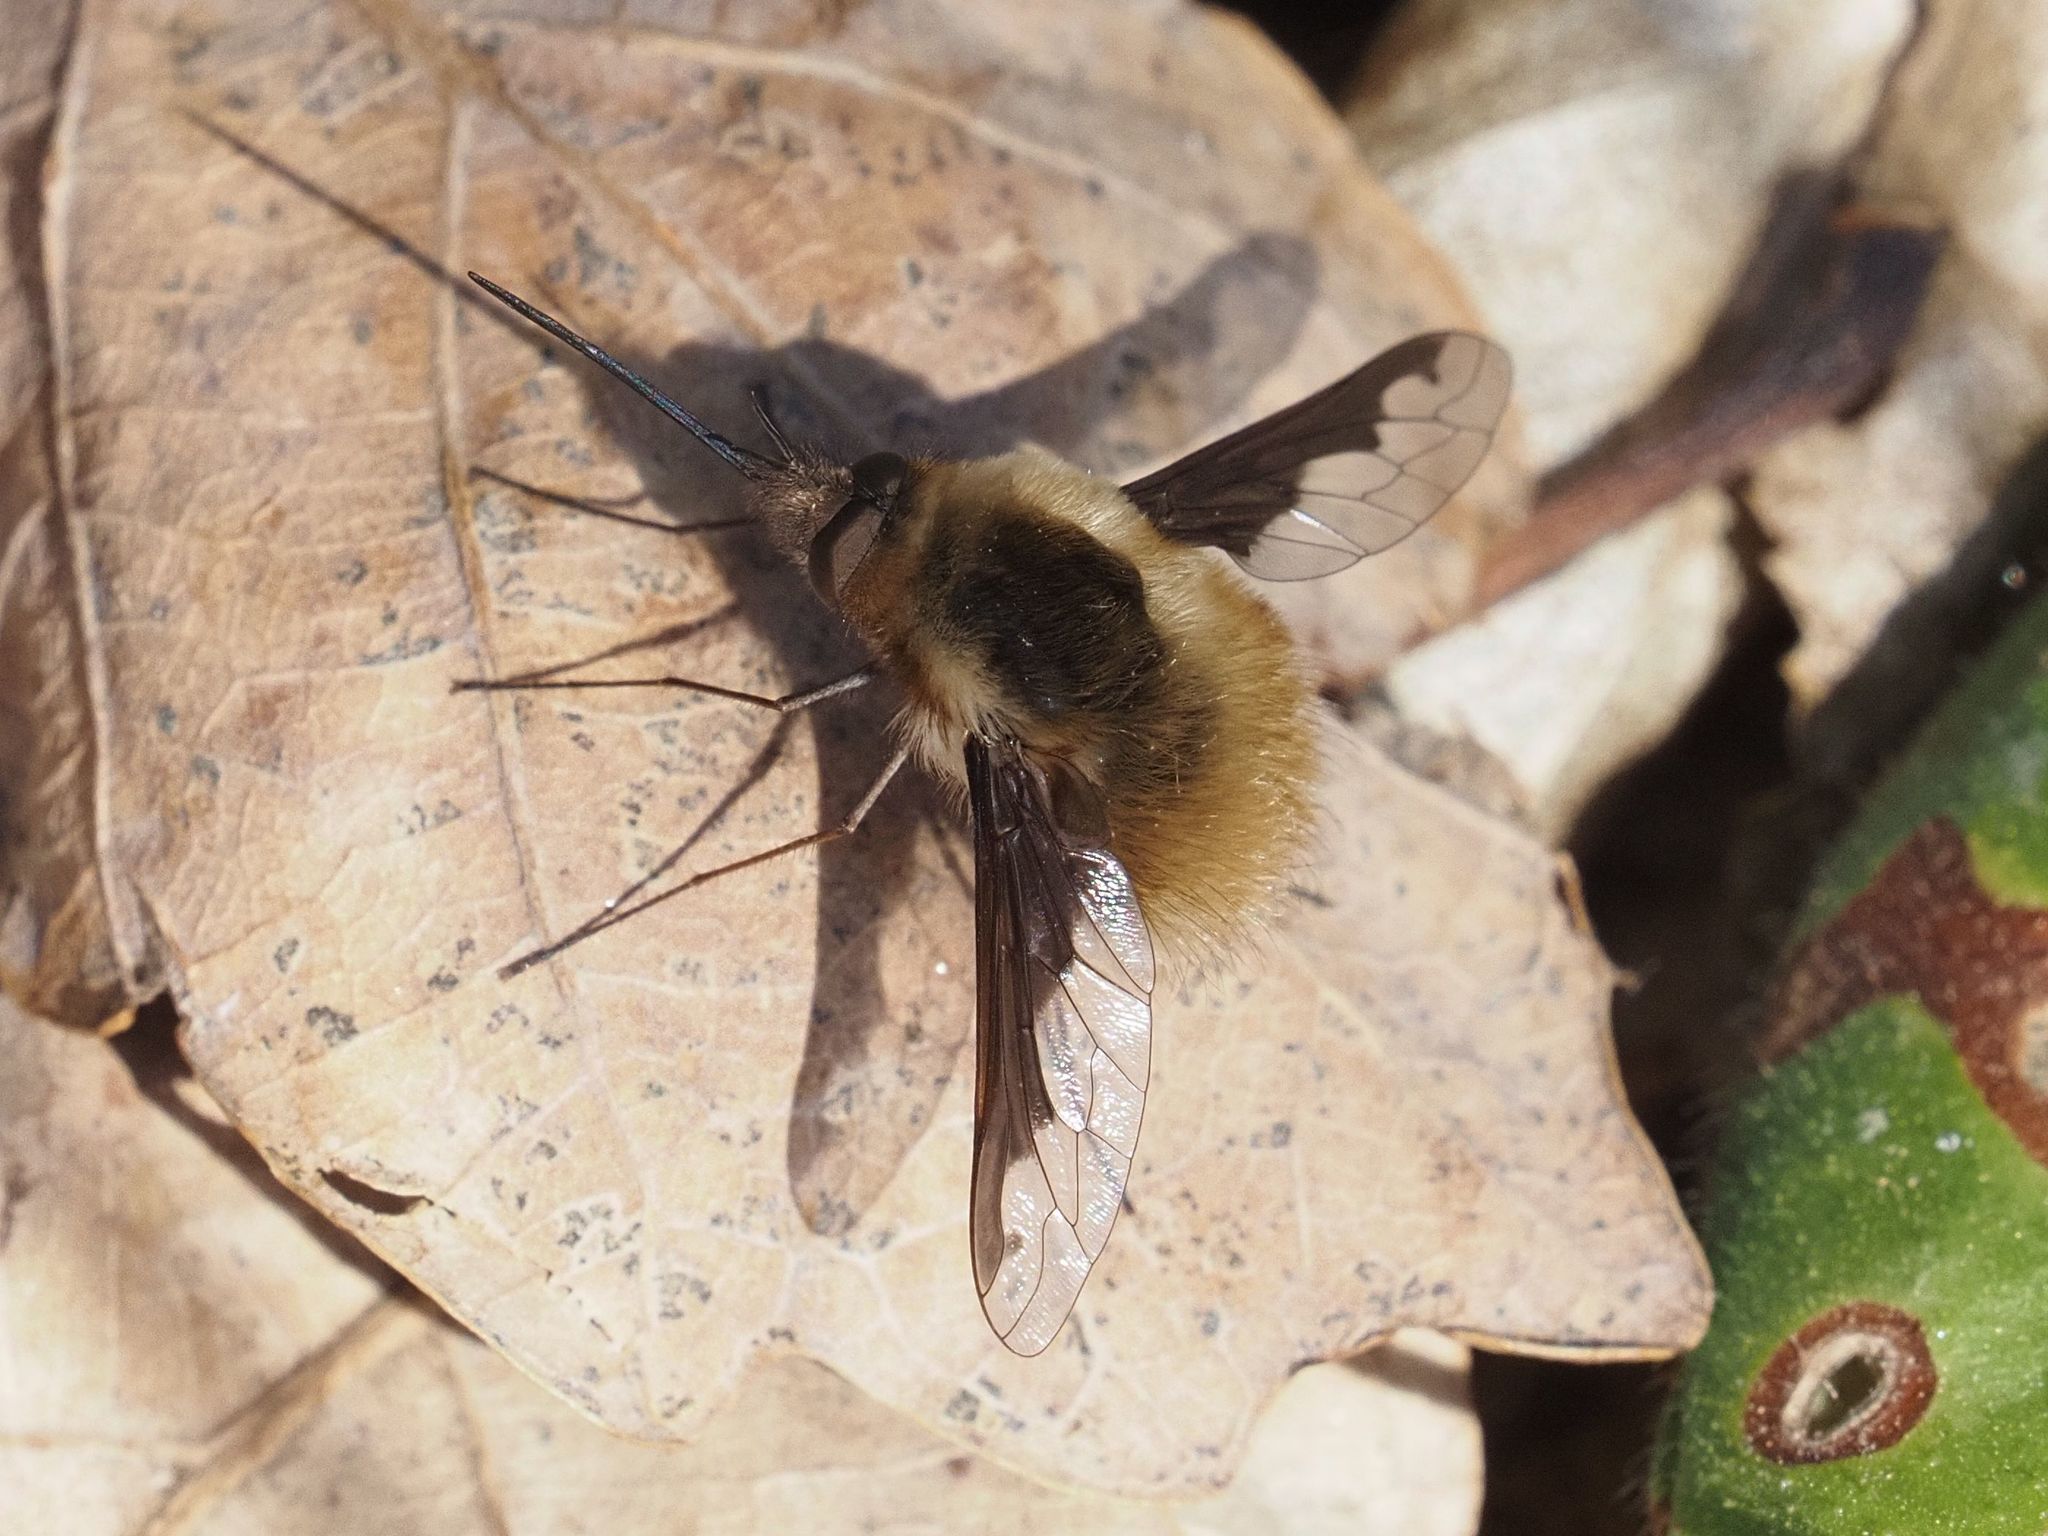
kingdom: Animalia
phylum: Arthropoda
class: Insecta
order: Diptera
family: Bombyliidae
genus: Bombylius
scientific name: Bombylius major
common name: Bee fly
